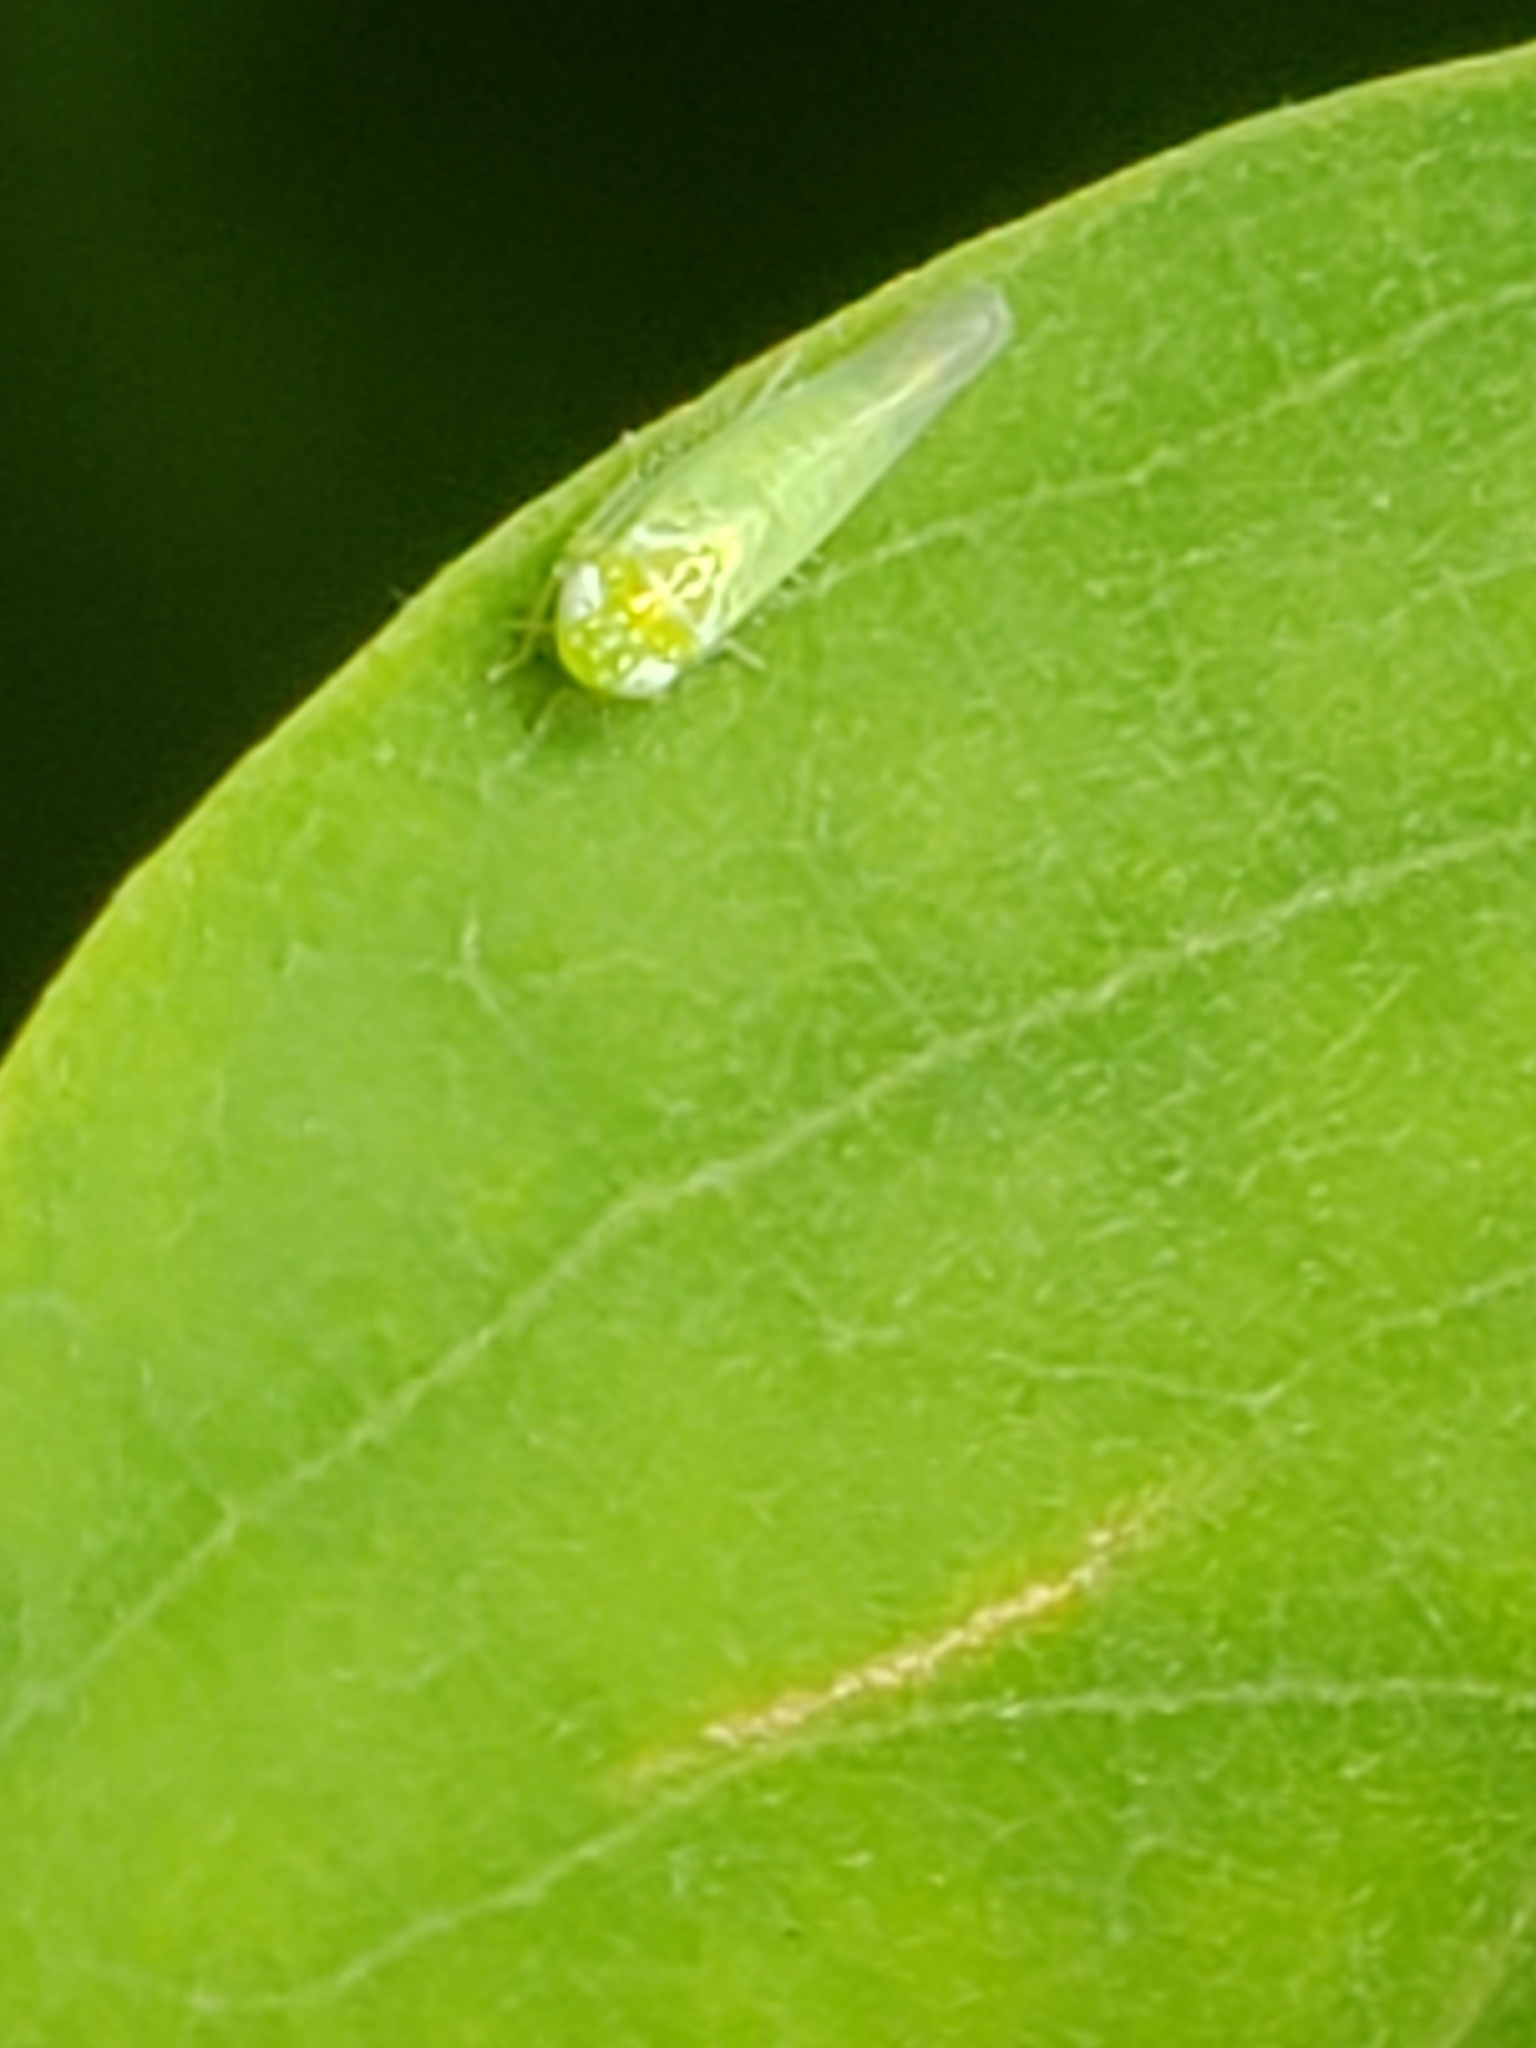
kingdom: Animalia
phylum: Arthropoda
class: Insecta
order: Hemiptera
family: Cicadellidae
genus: Empoasca
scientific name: Empoasca fabae
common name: Potato leafhopper
